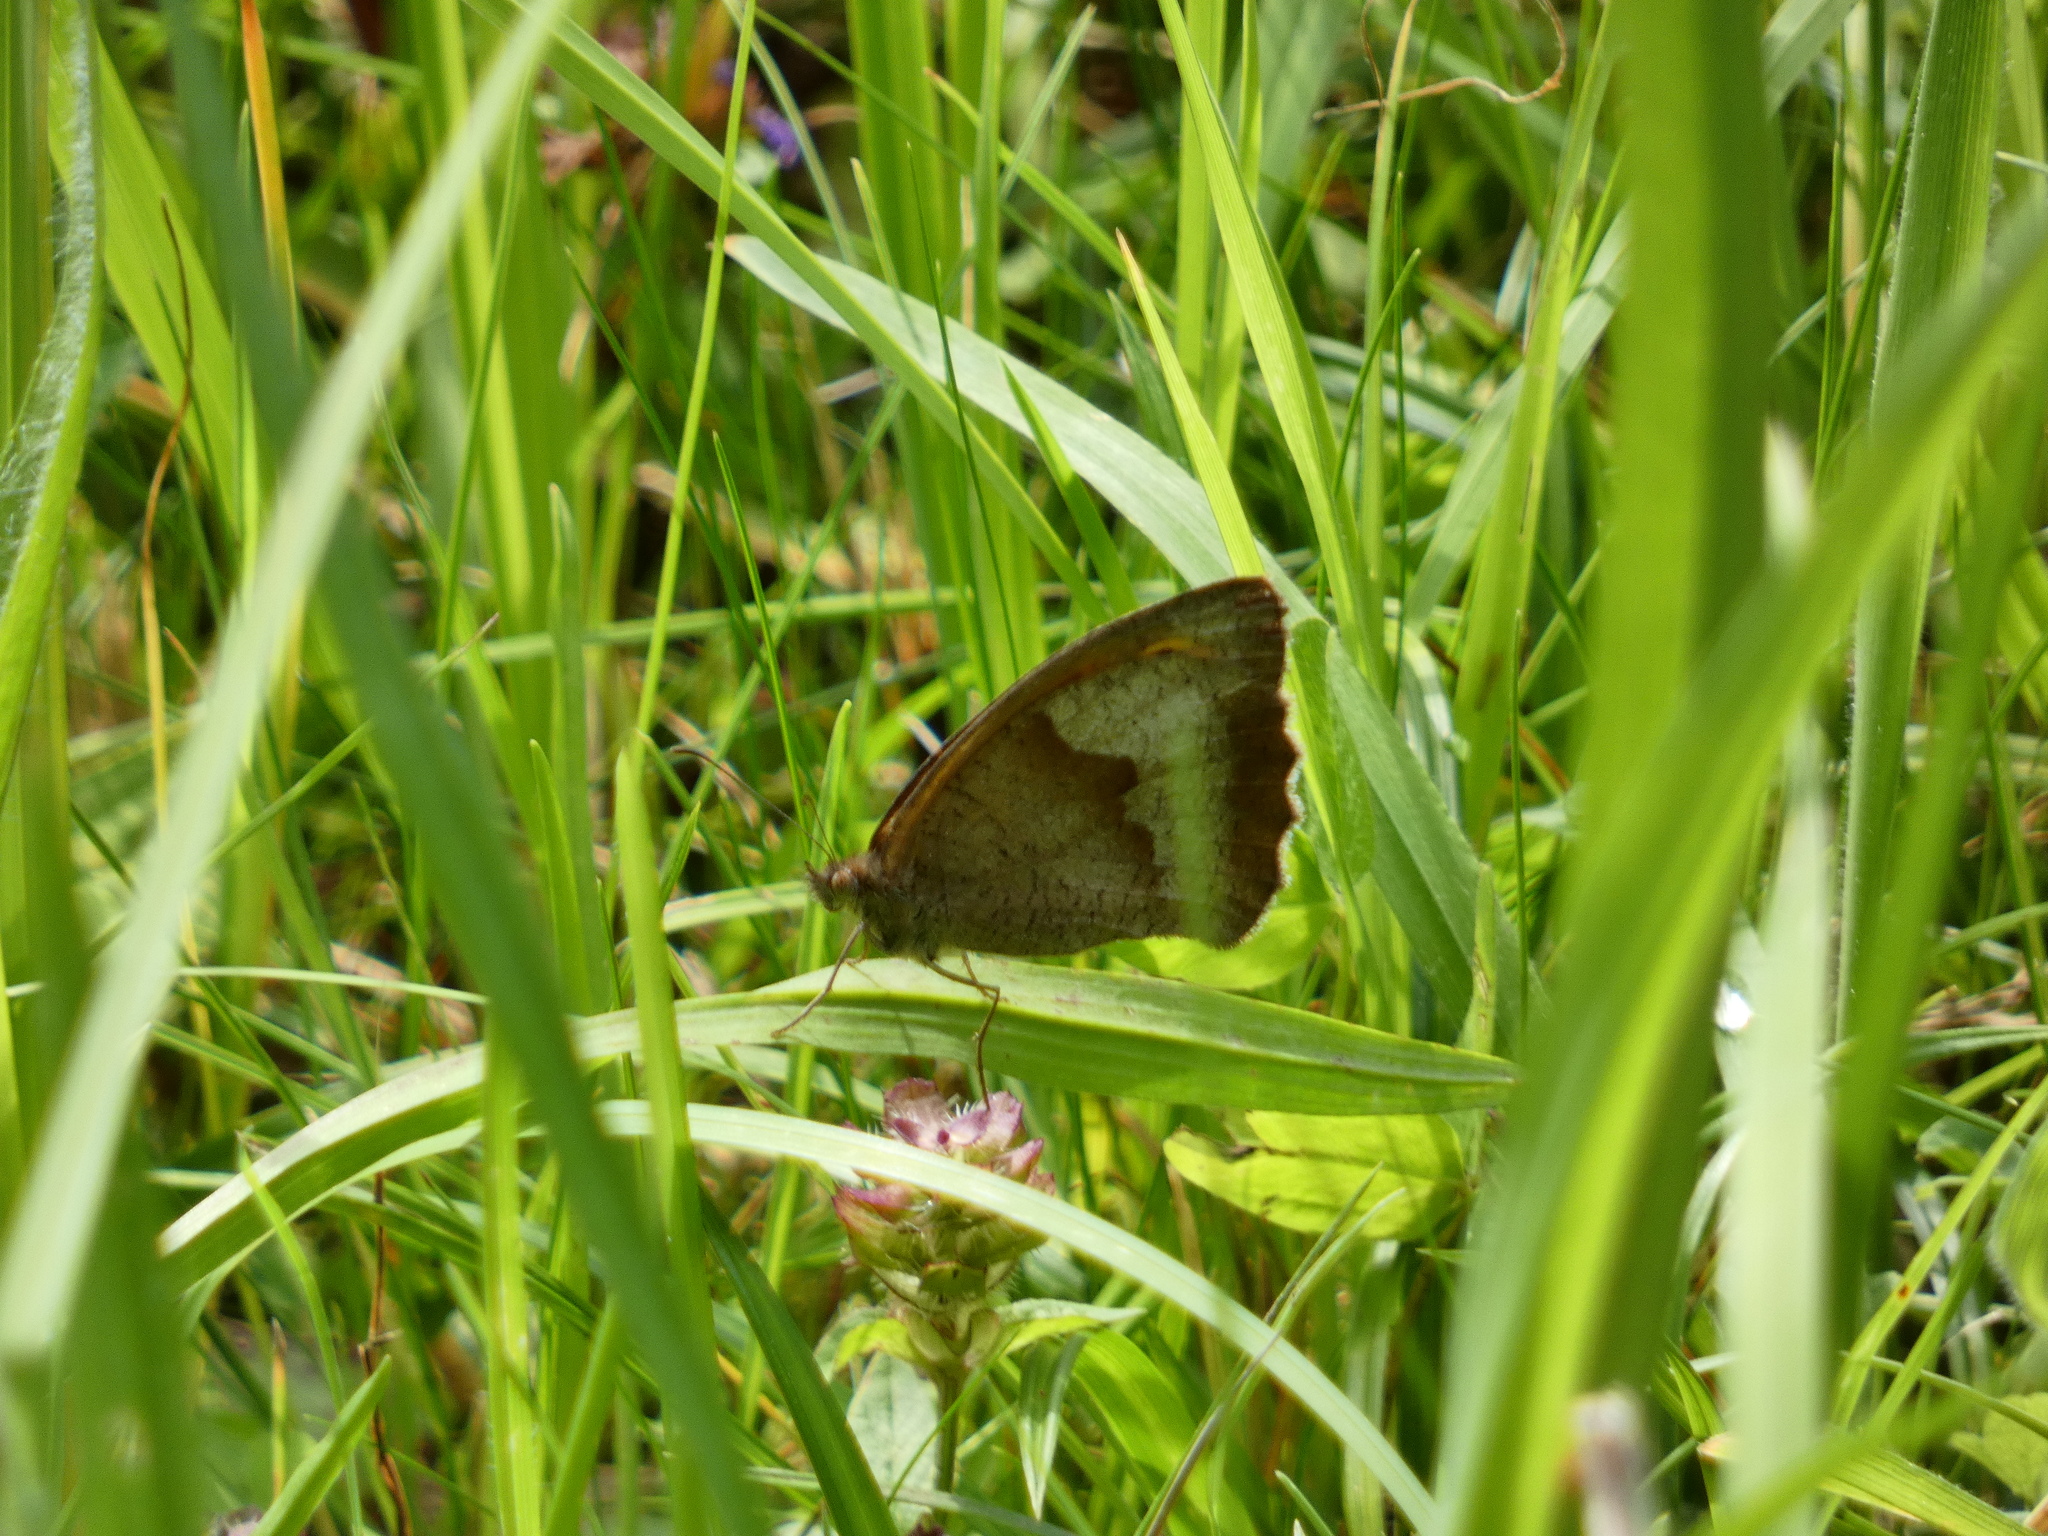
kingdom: Animalia
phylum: Arthropoda
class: Insecta
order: Lepidoptera
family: Nymphalidae
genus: Maniola
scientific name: Maniola jurtina
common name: Meadow brown
